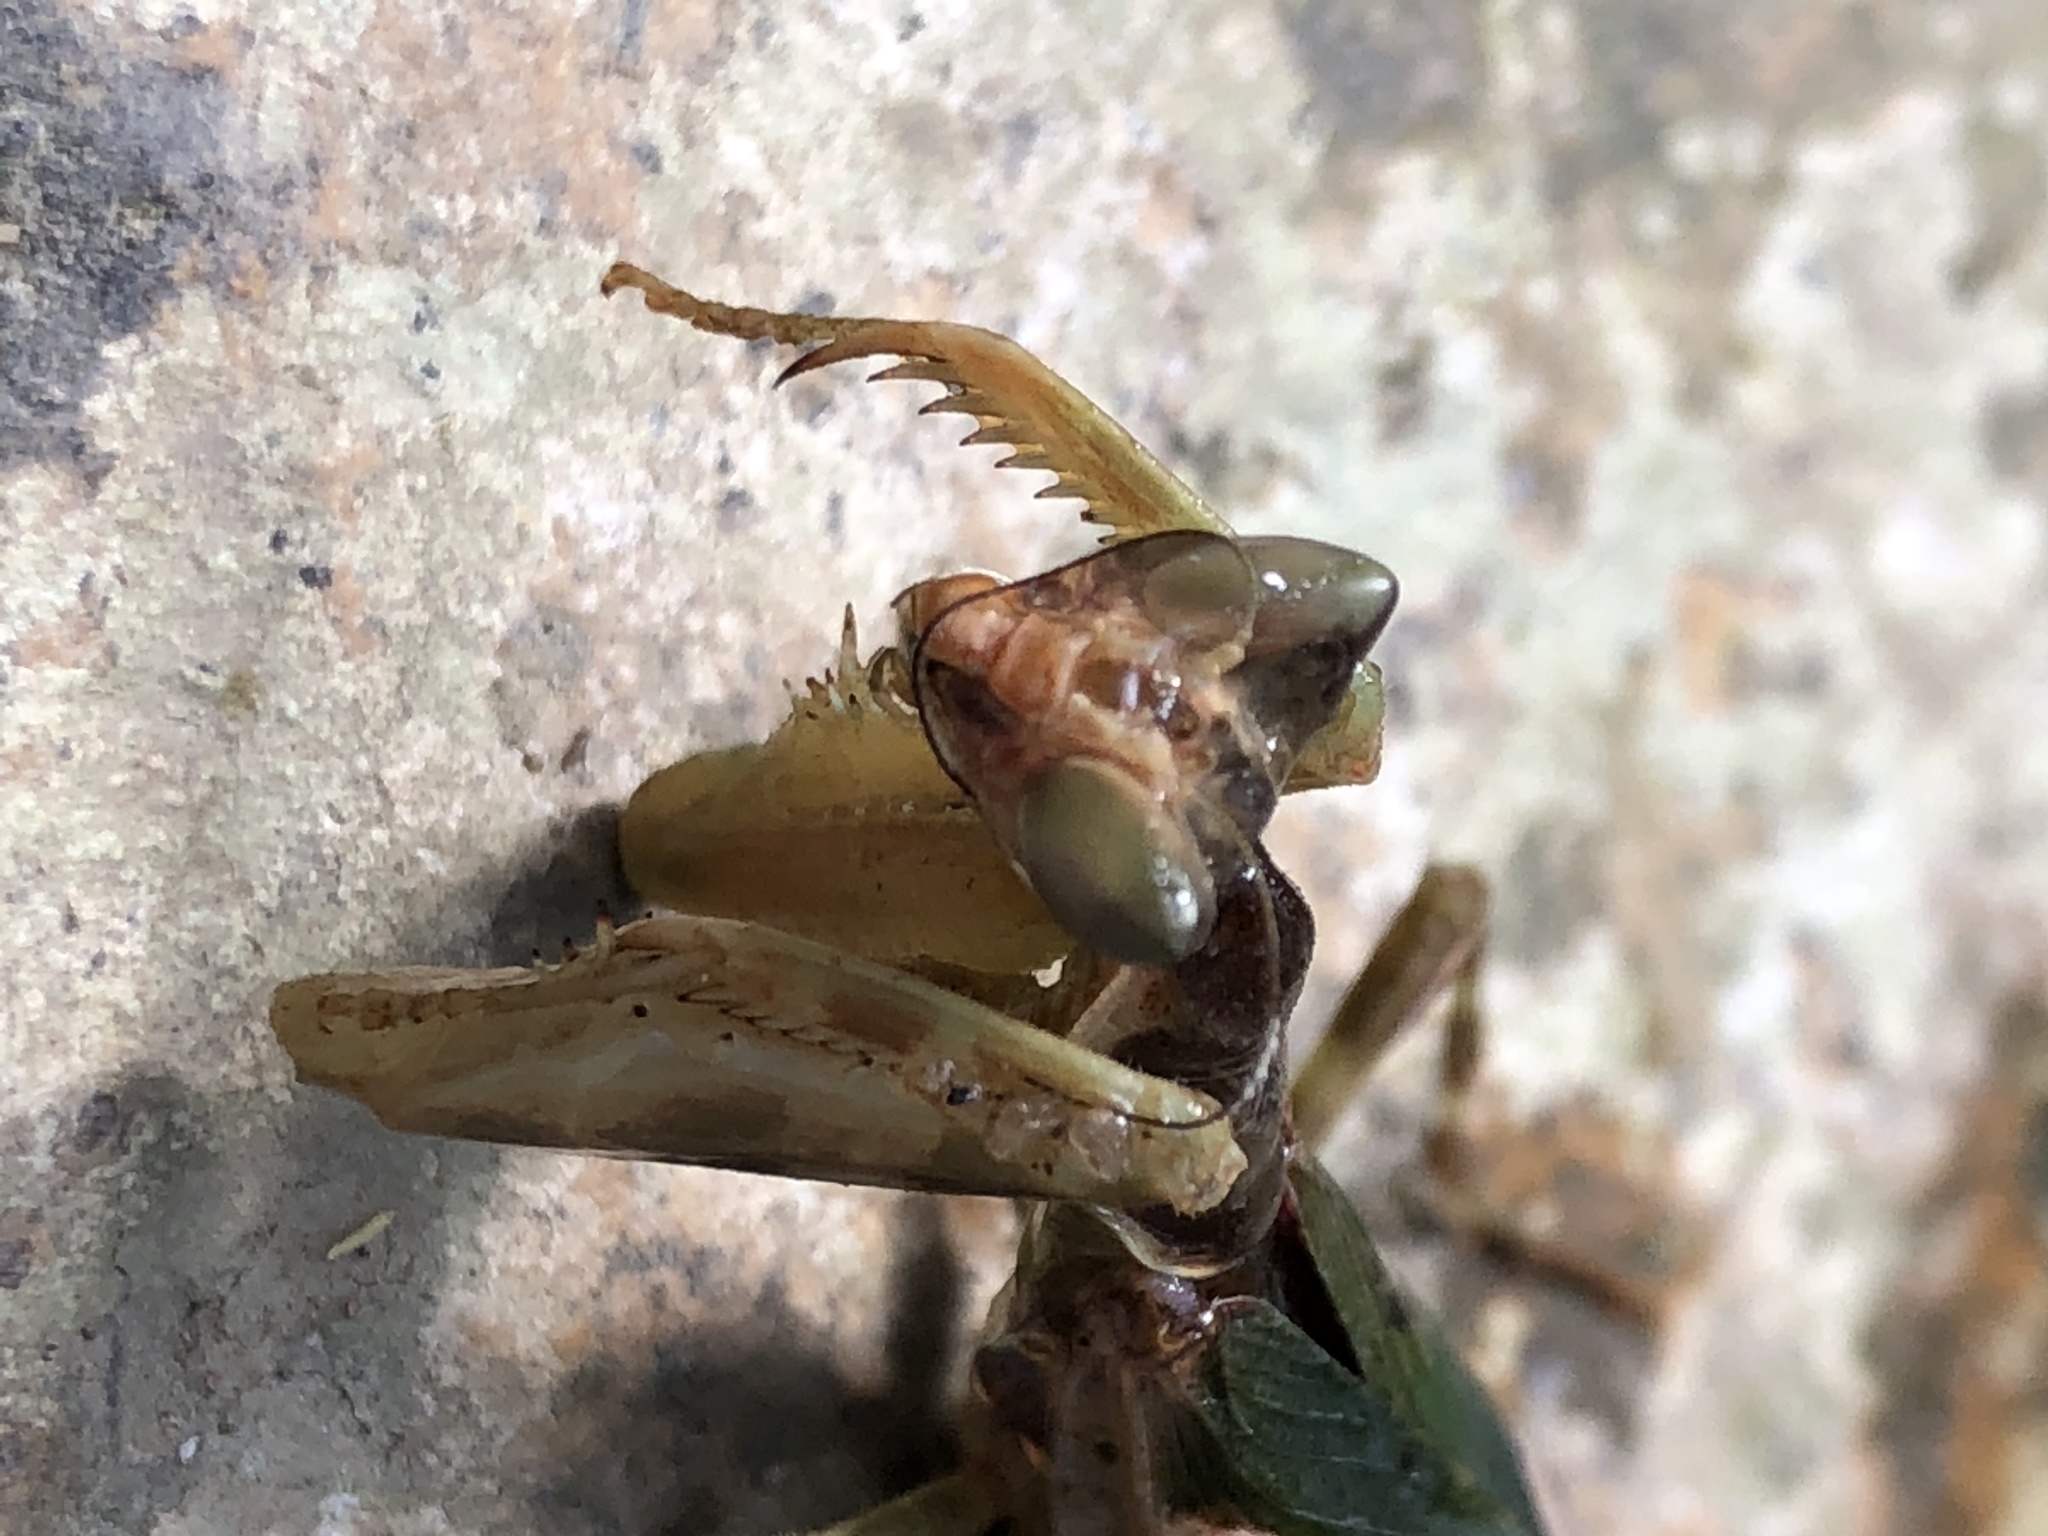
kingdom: Animalia
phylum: Arthropoda
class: Insecta
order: Mantodea
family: Hymenopodidae
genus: Creobroter
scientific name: Creobroter gemmatus
